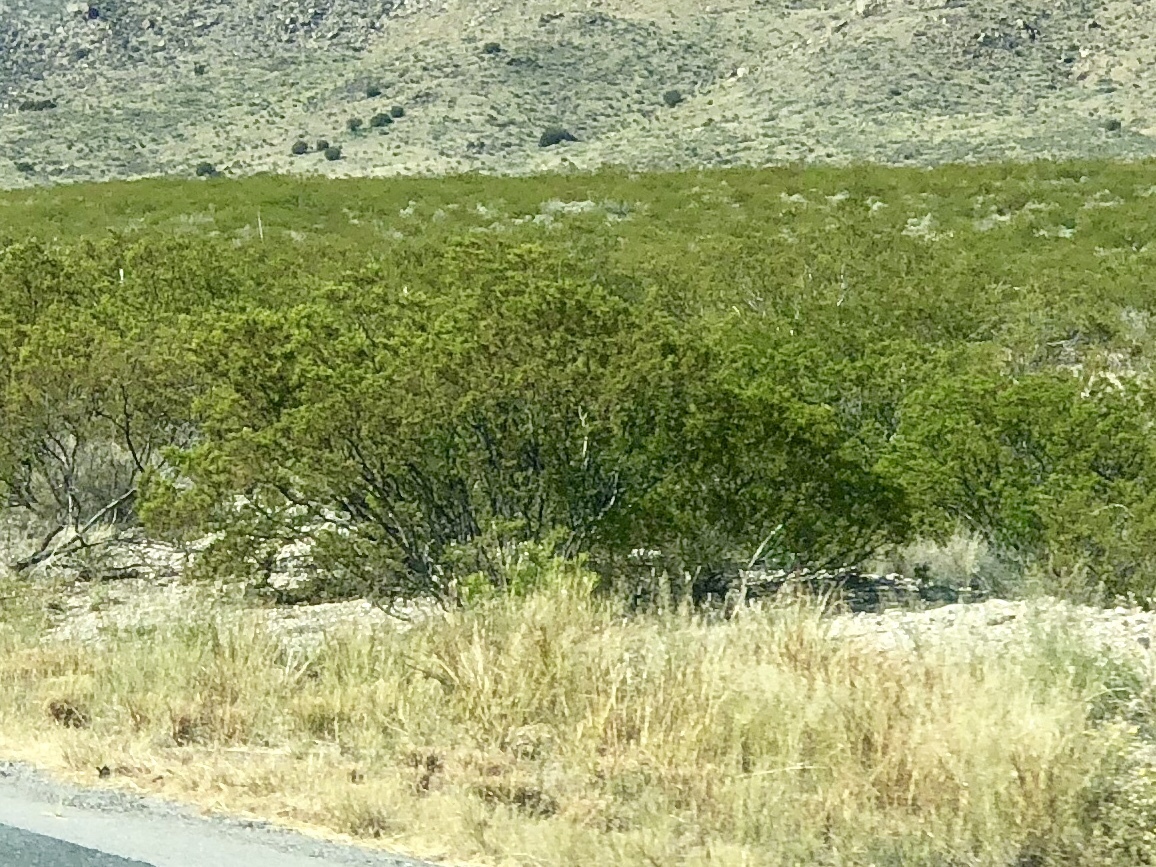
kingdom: Plantae
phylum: Tracheophyta
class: Magnoliopsida
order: Zygophyllales
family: Zygophyllaceae
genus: Larrea
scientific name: Larrea tridentata
